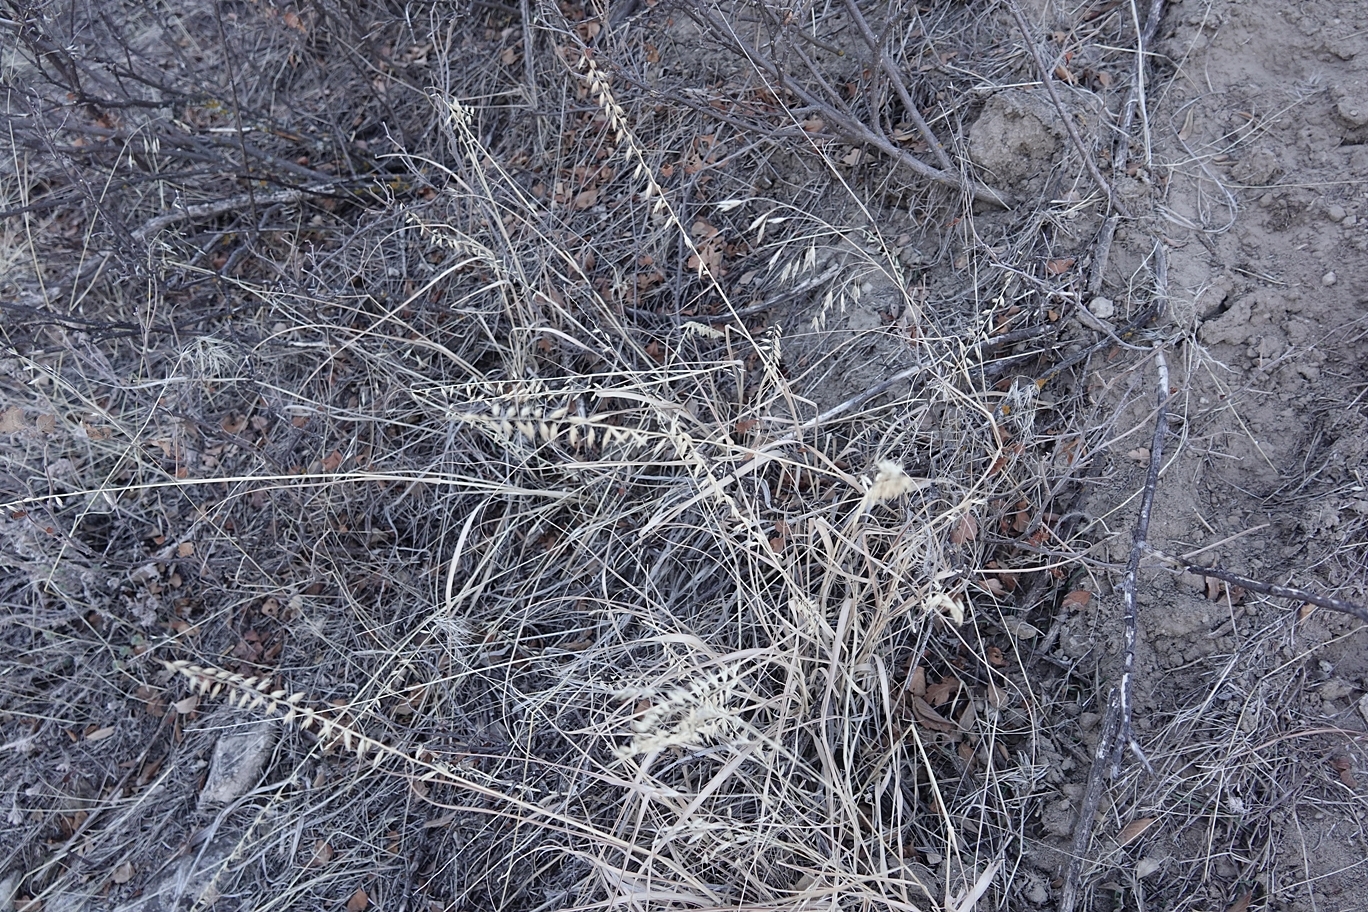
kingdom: Plantae
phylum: Tracheophyta
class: Liliopsida
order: Poales
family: Poaceae
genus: Bouteloua
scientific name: Bouteloua curtipendula
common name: Side-oats grama
